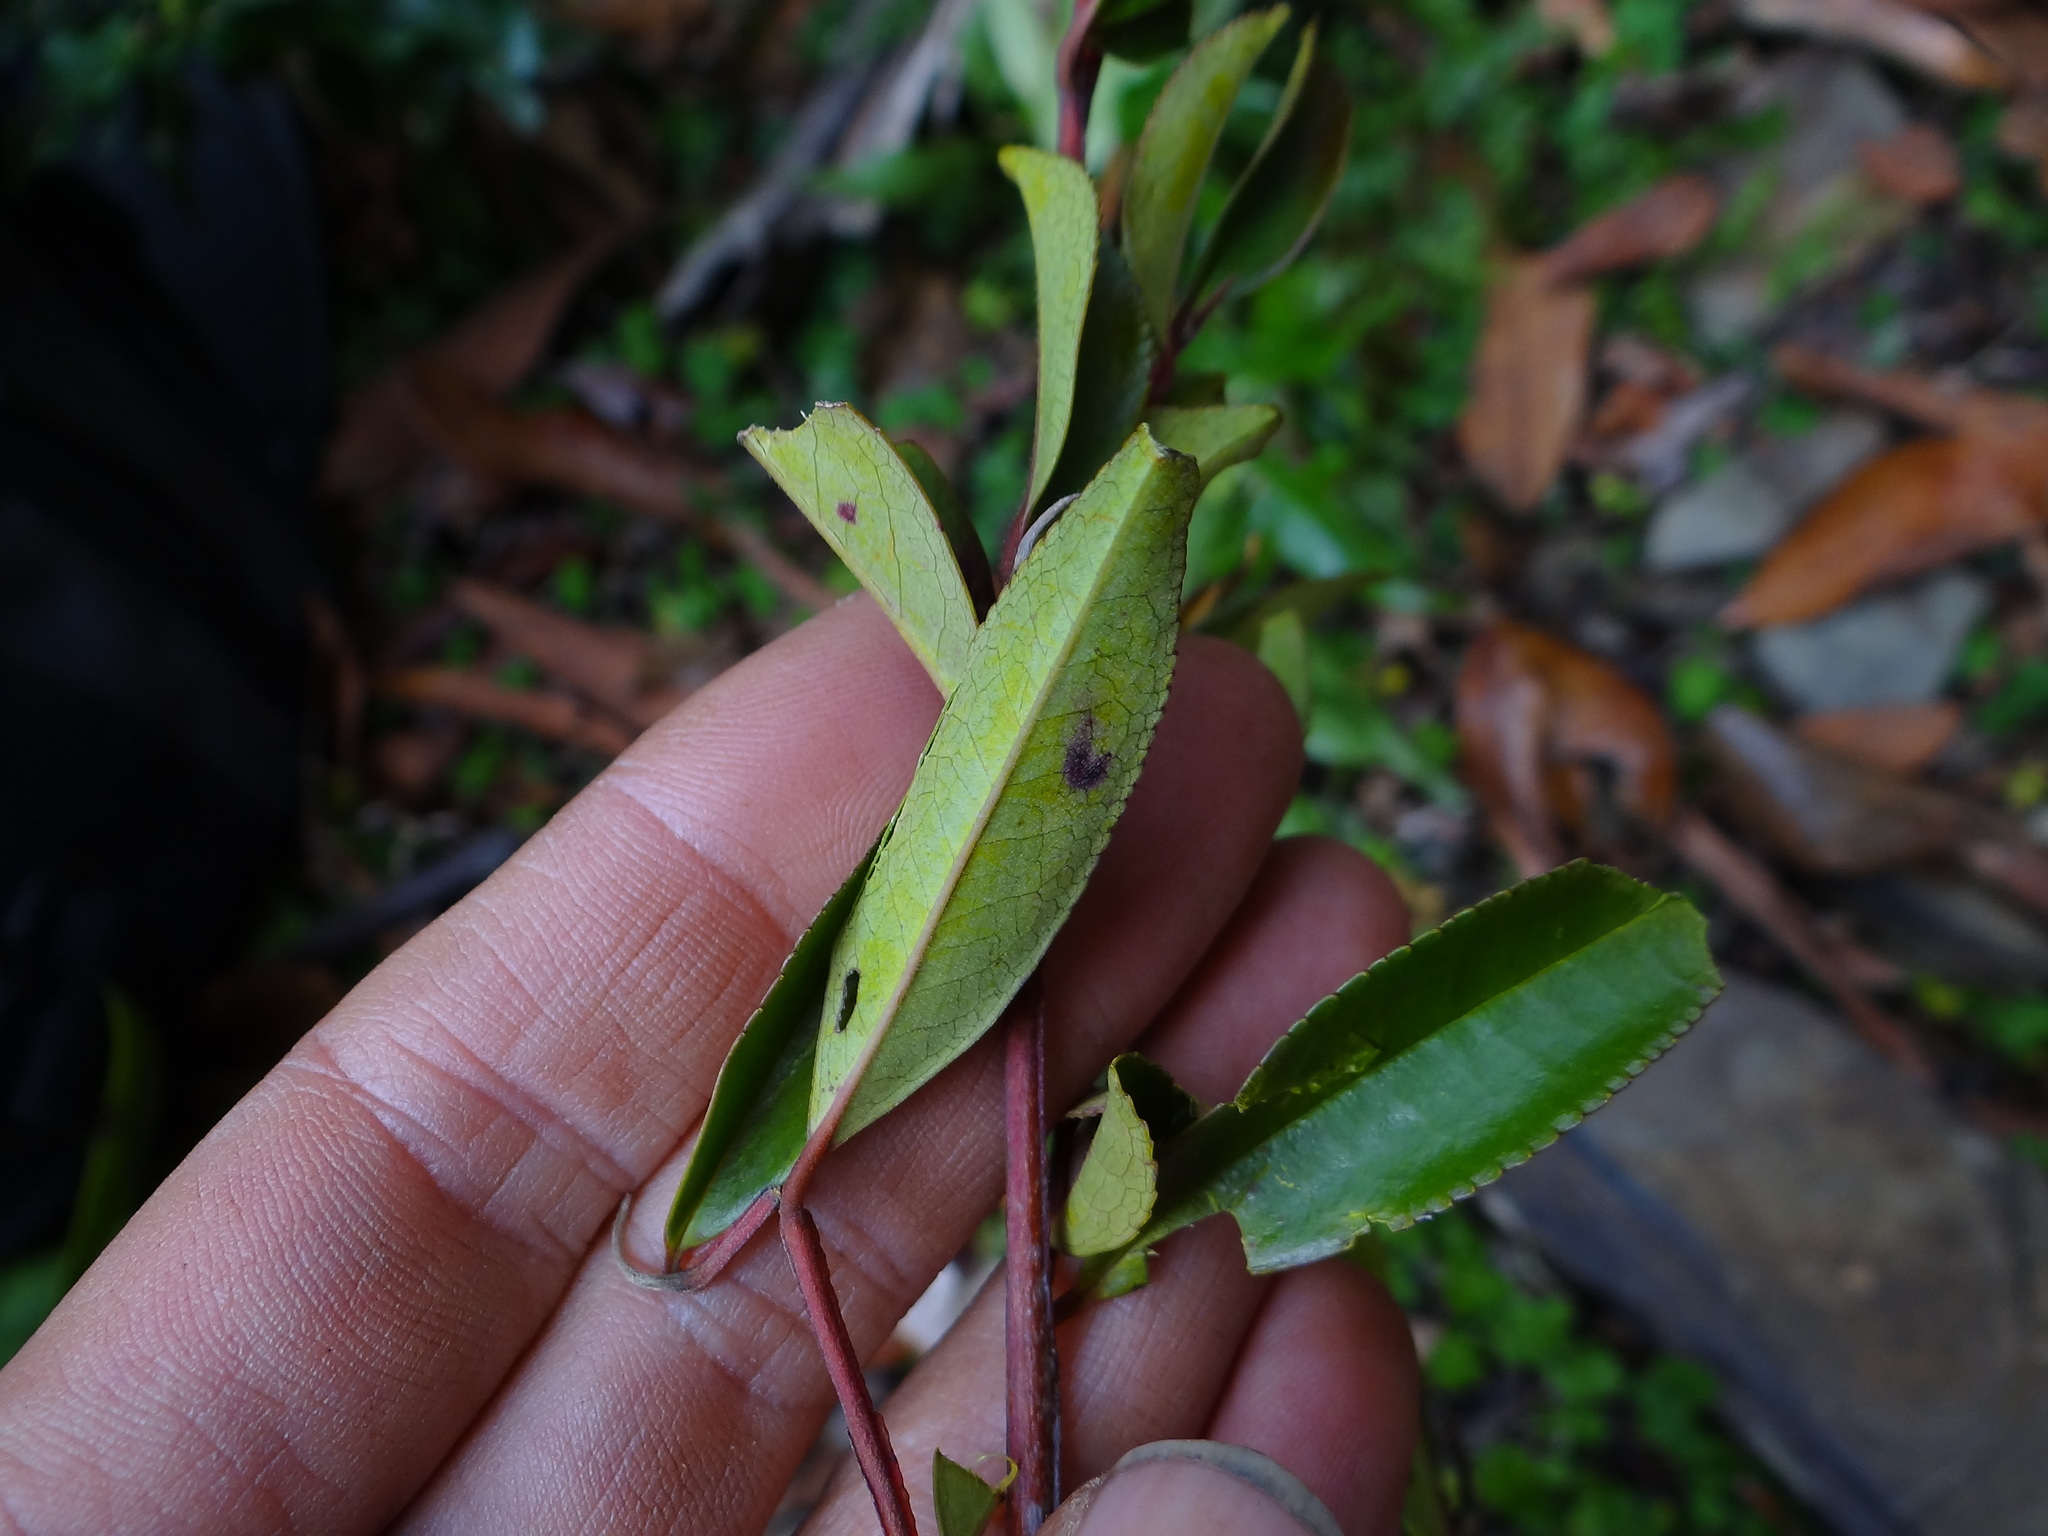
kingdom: Plantae
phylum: Tracheophyta
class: Magnoliopsida
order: Ericales
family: Pentaphylacaceae
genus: Eurya
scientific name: Eurya gnaphalocarpa
